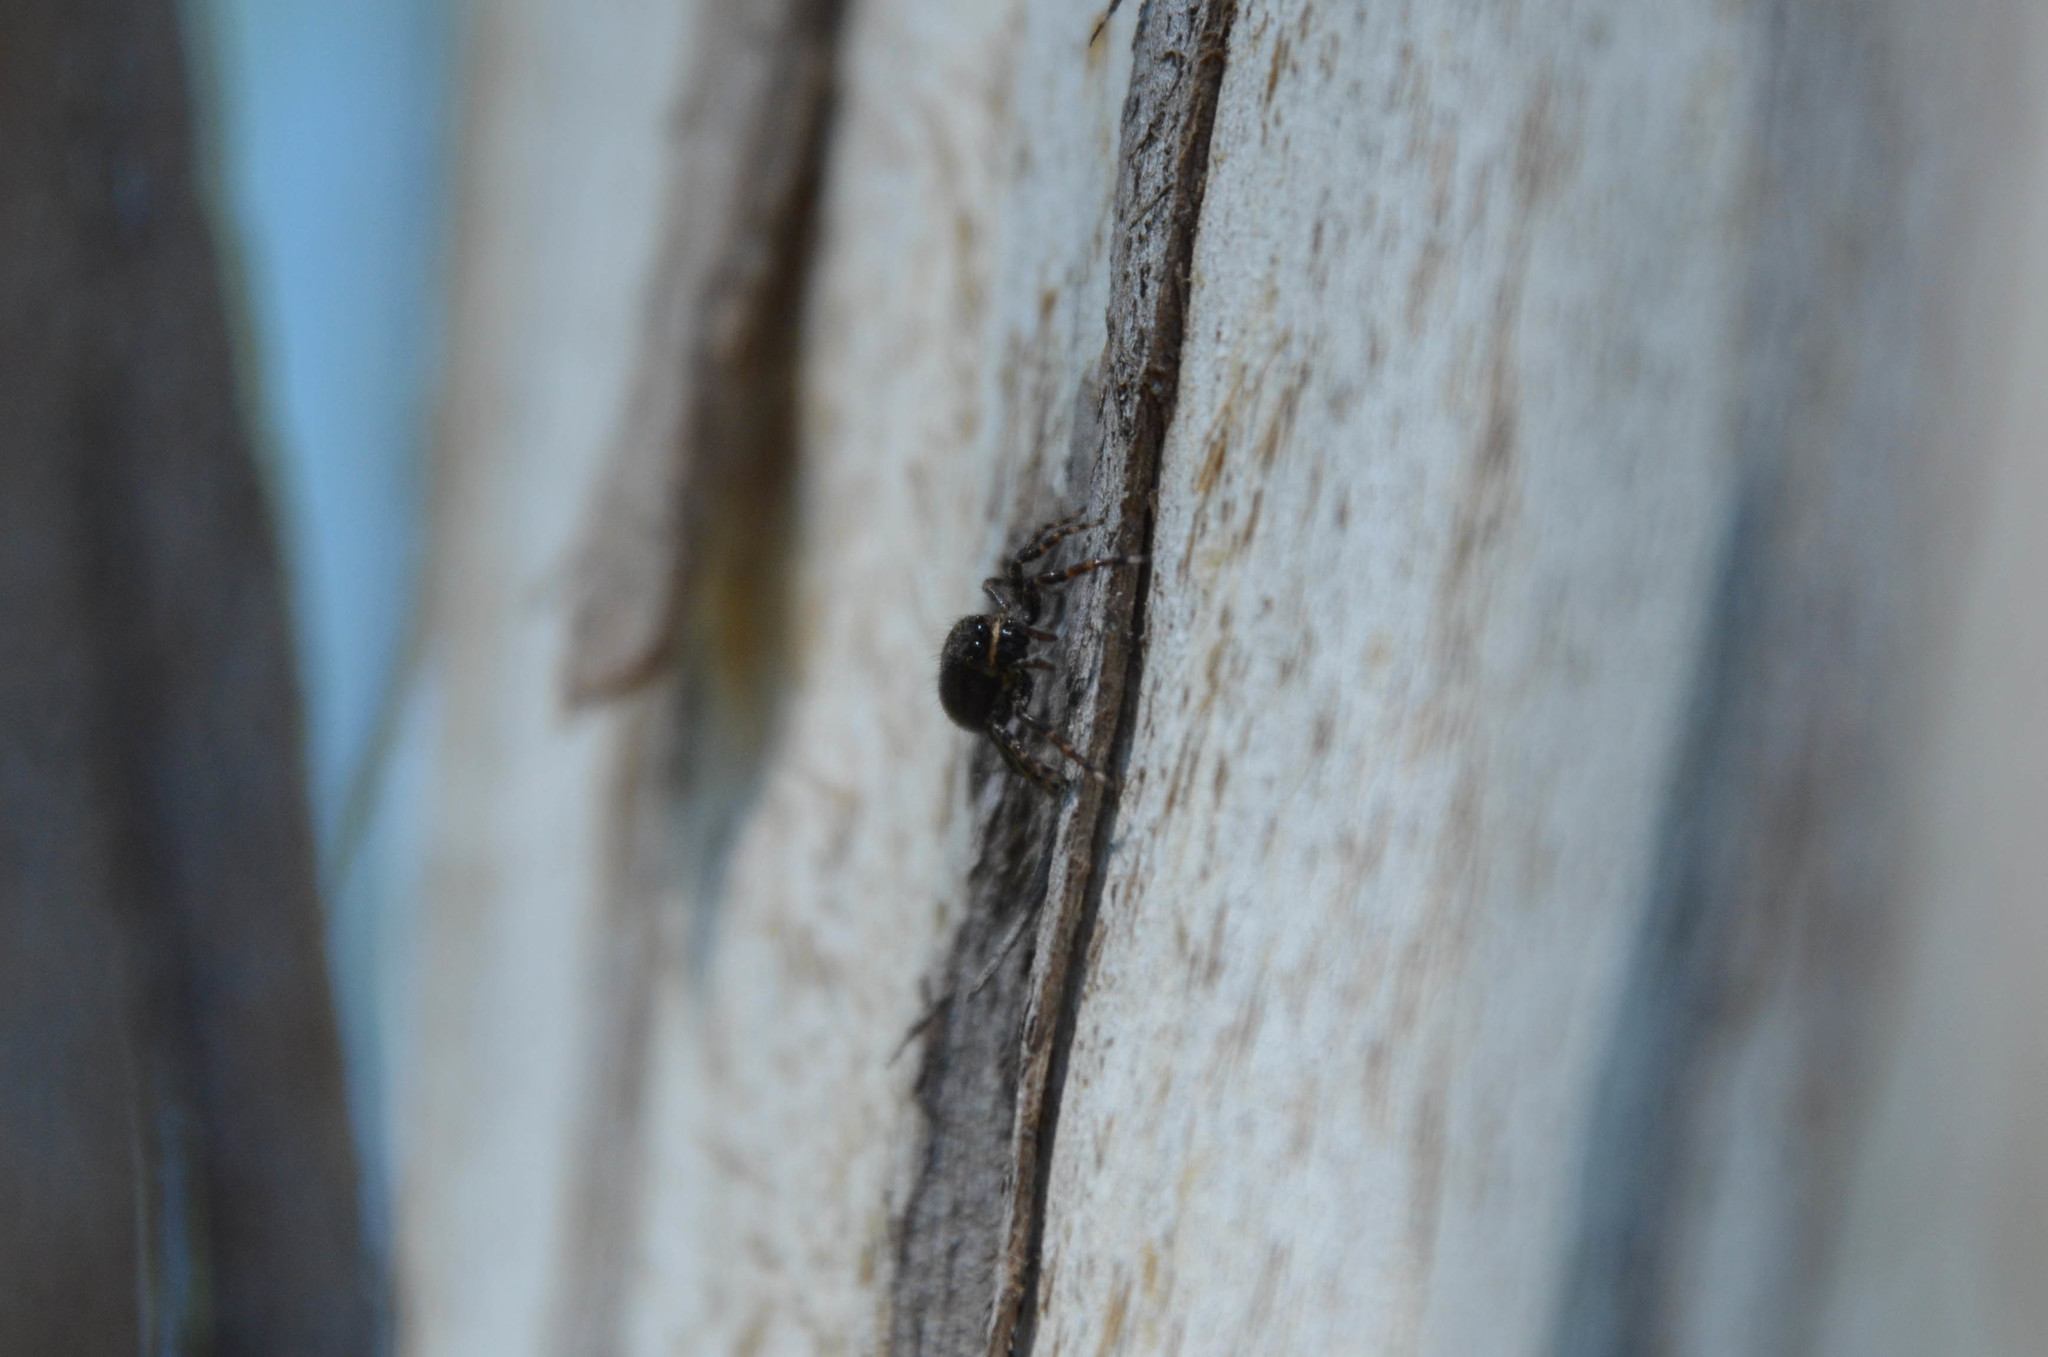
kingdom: Animalia
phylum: Arthropoda
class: Arachnida
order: Araneae
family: Salticidae
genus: Titanattus
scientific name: Titanattus andinus
